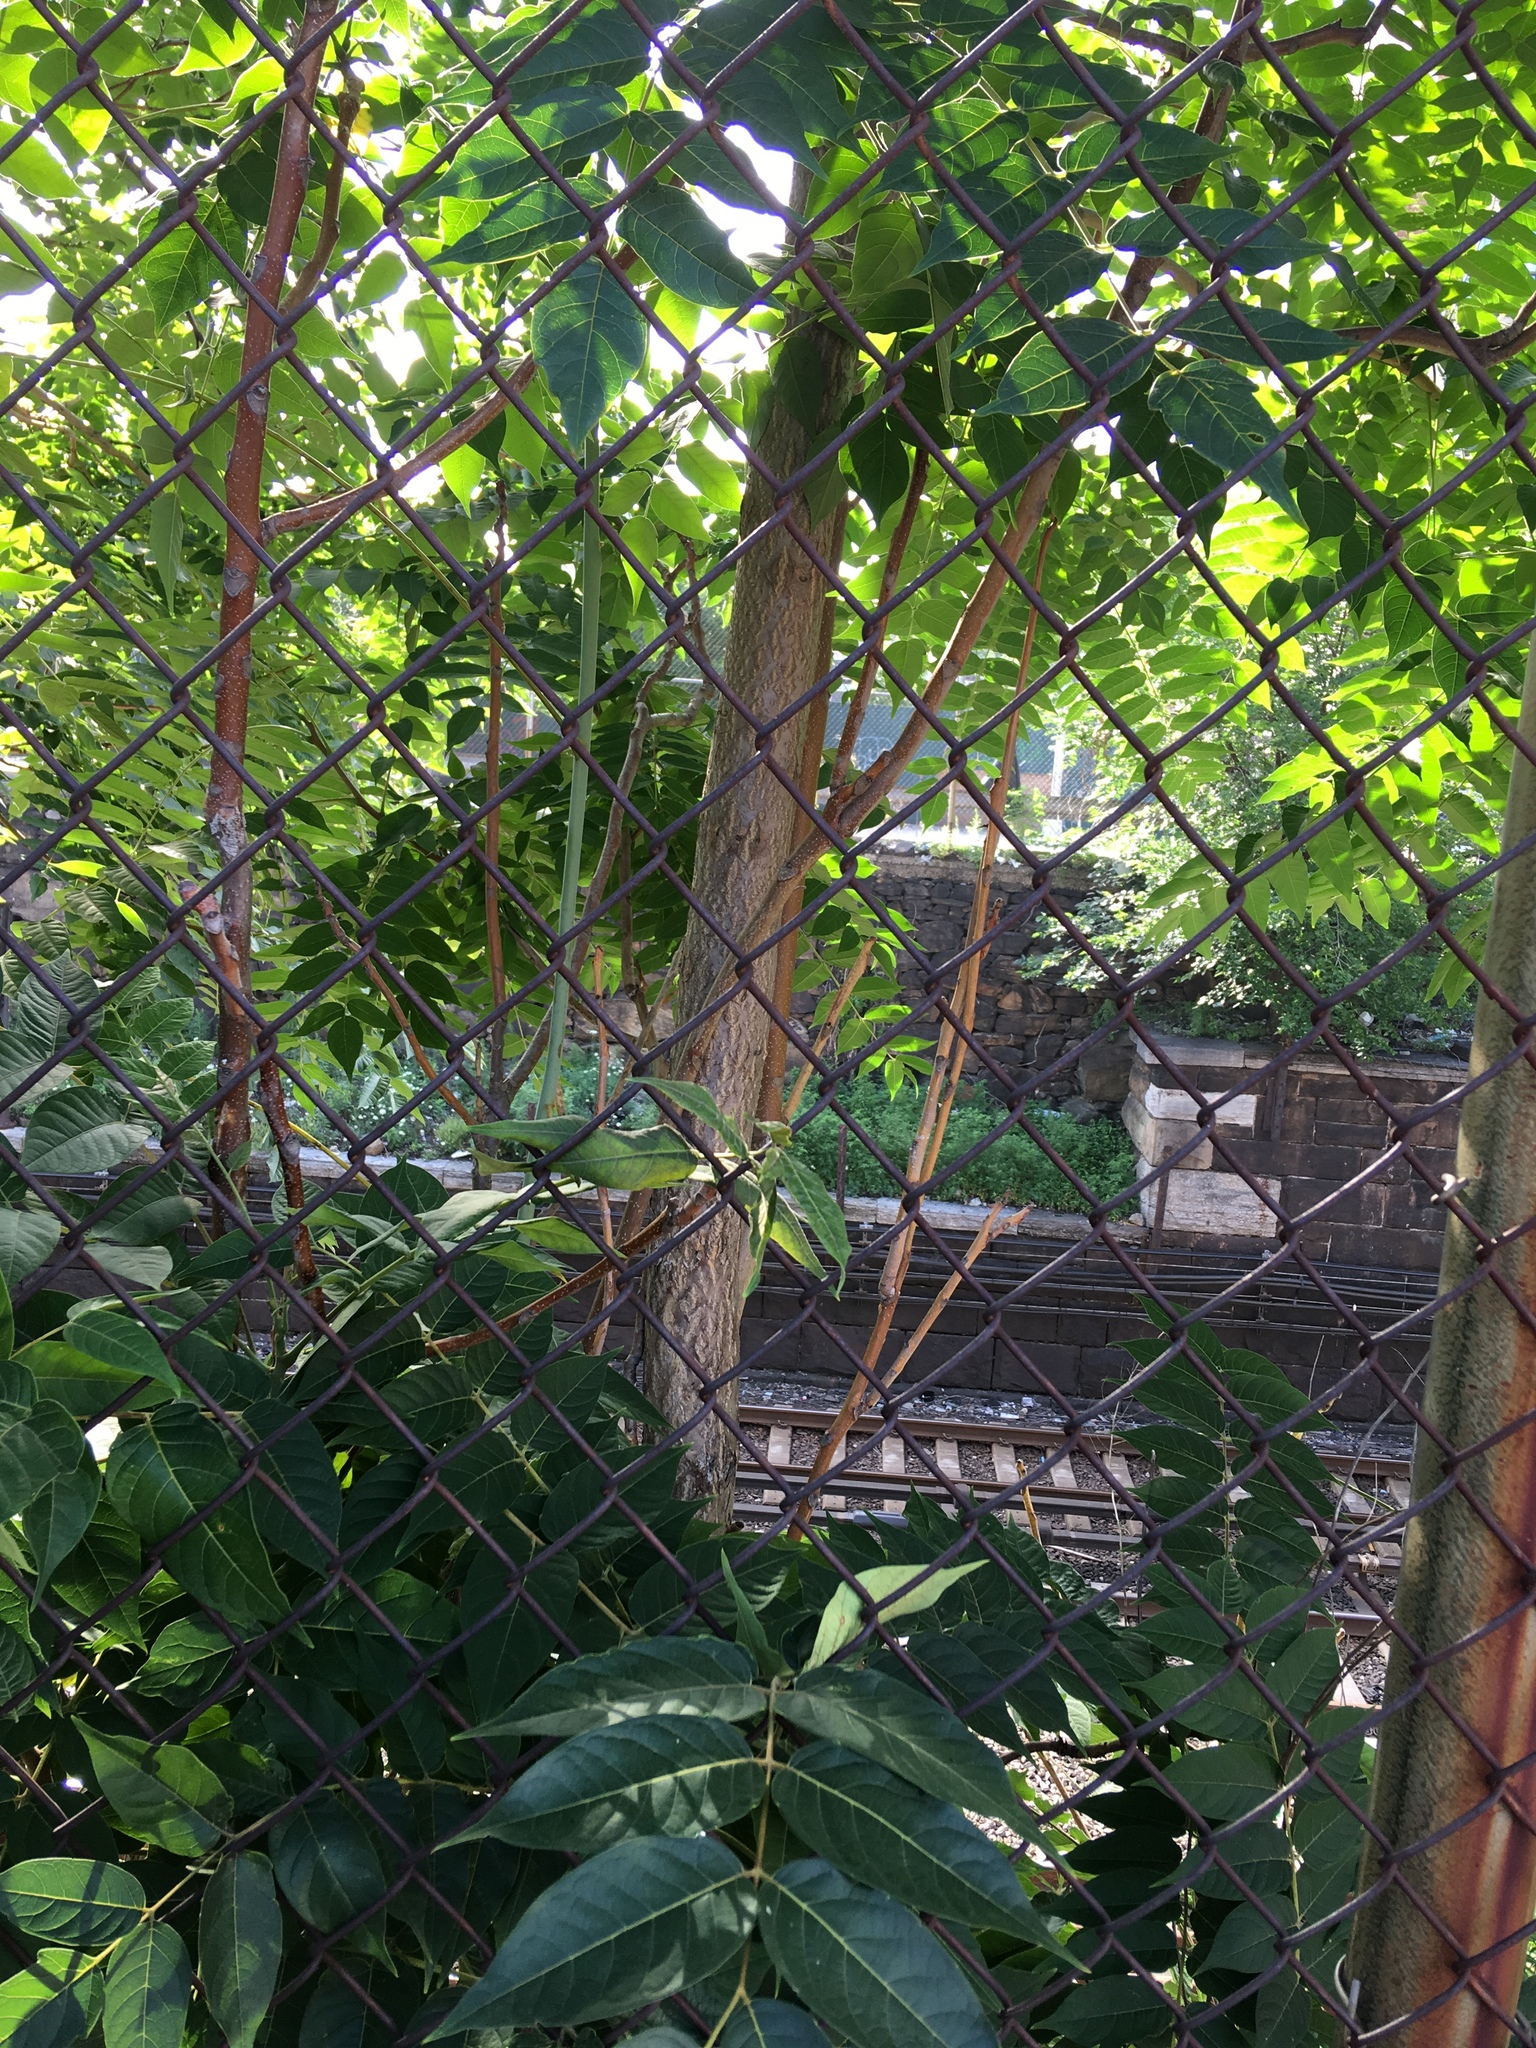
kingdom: Plantae
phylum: Tracheophyta
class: Magnoliopsida
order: Sapindales
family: Simaroubaceae
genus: Ailanthus
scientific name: Ailanthus altissima
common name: Tree-of-heaven
